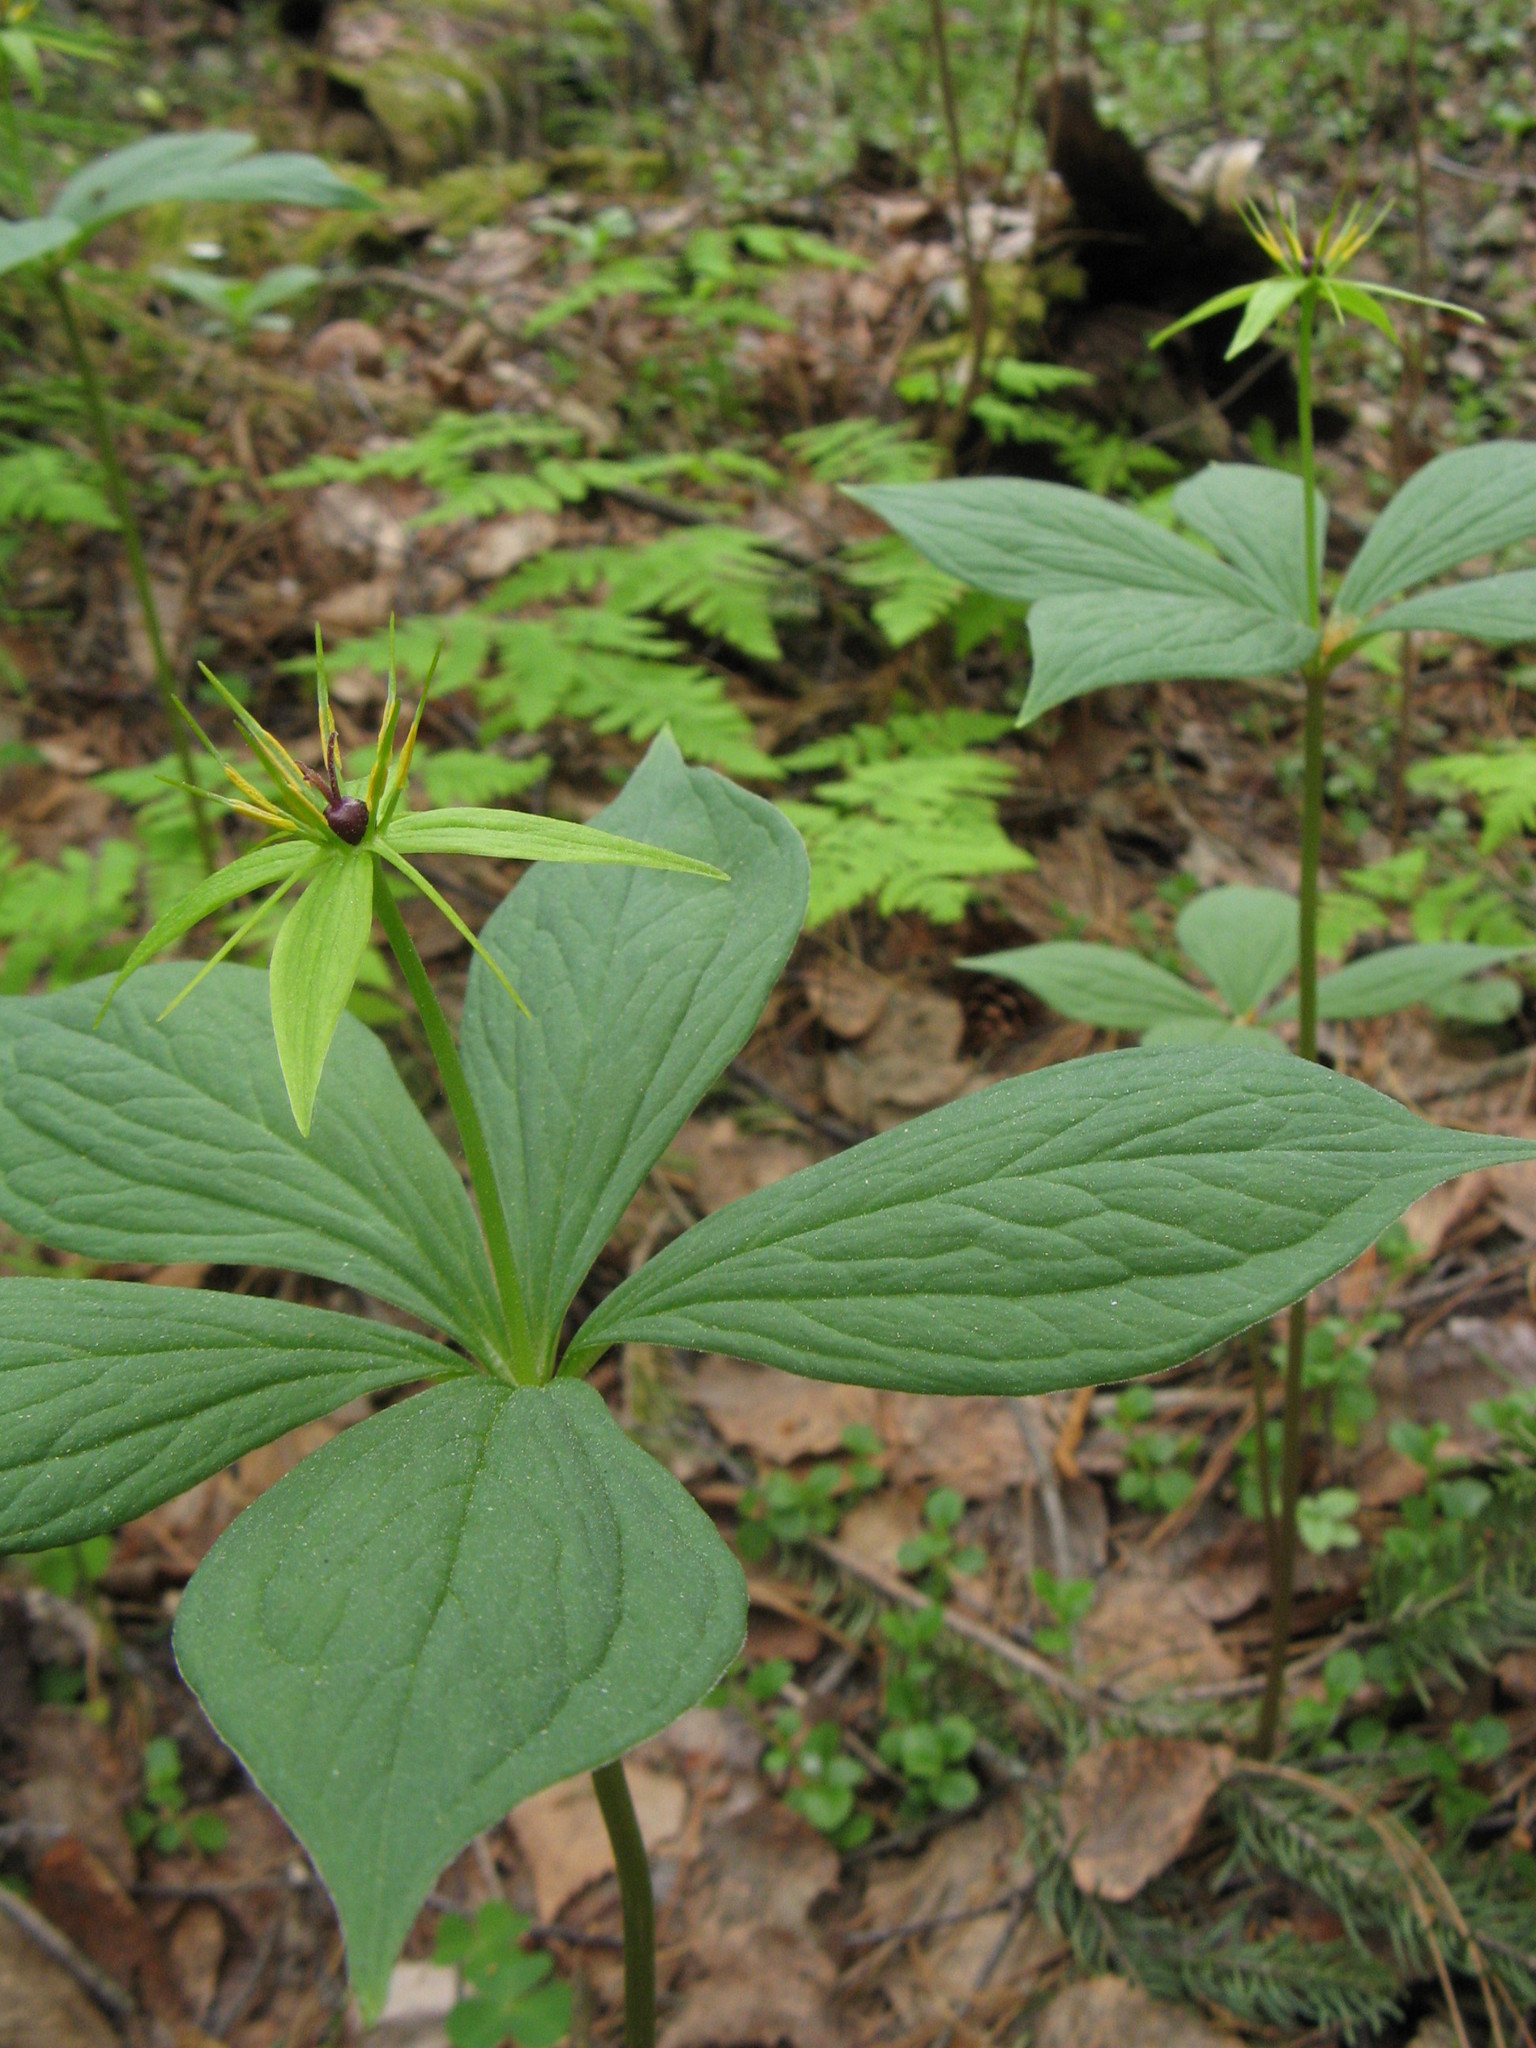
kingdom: Plantae
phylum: Tracheophyta
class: Liliopsida
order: Liliales
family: Melanthiaceae
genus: Paris
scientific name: Paris quadrifolia
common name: Herb-paris
